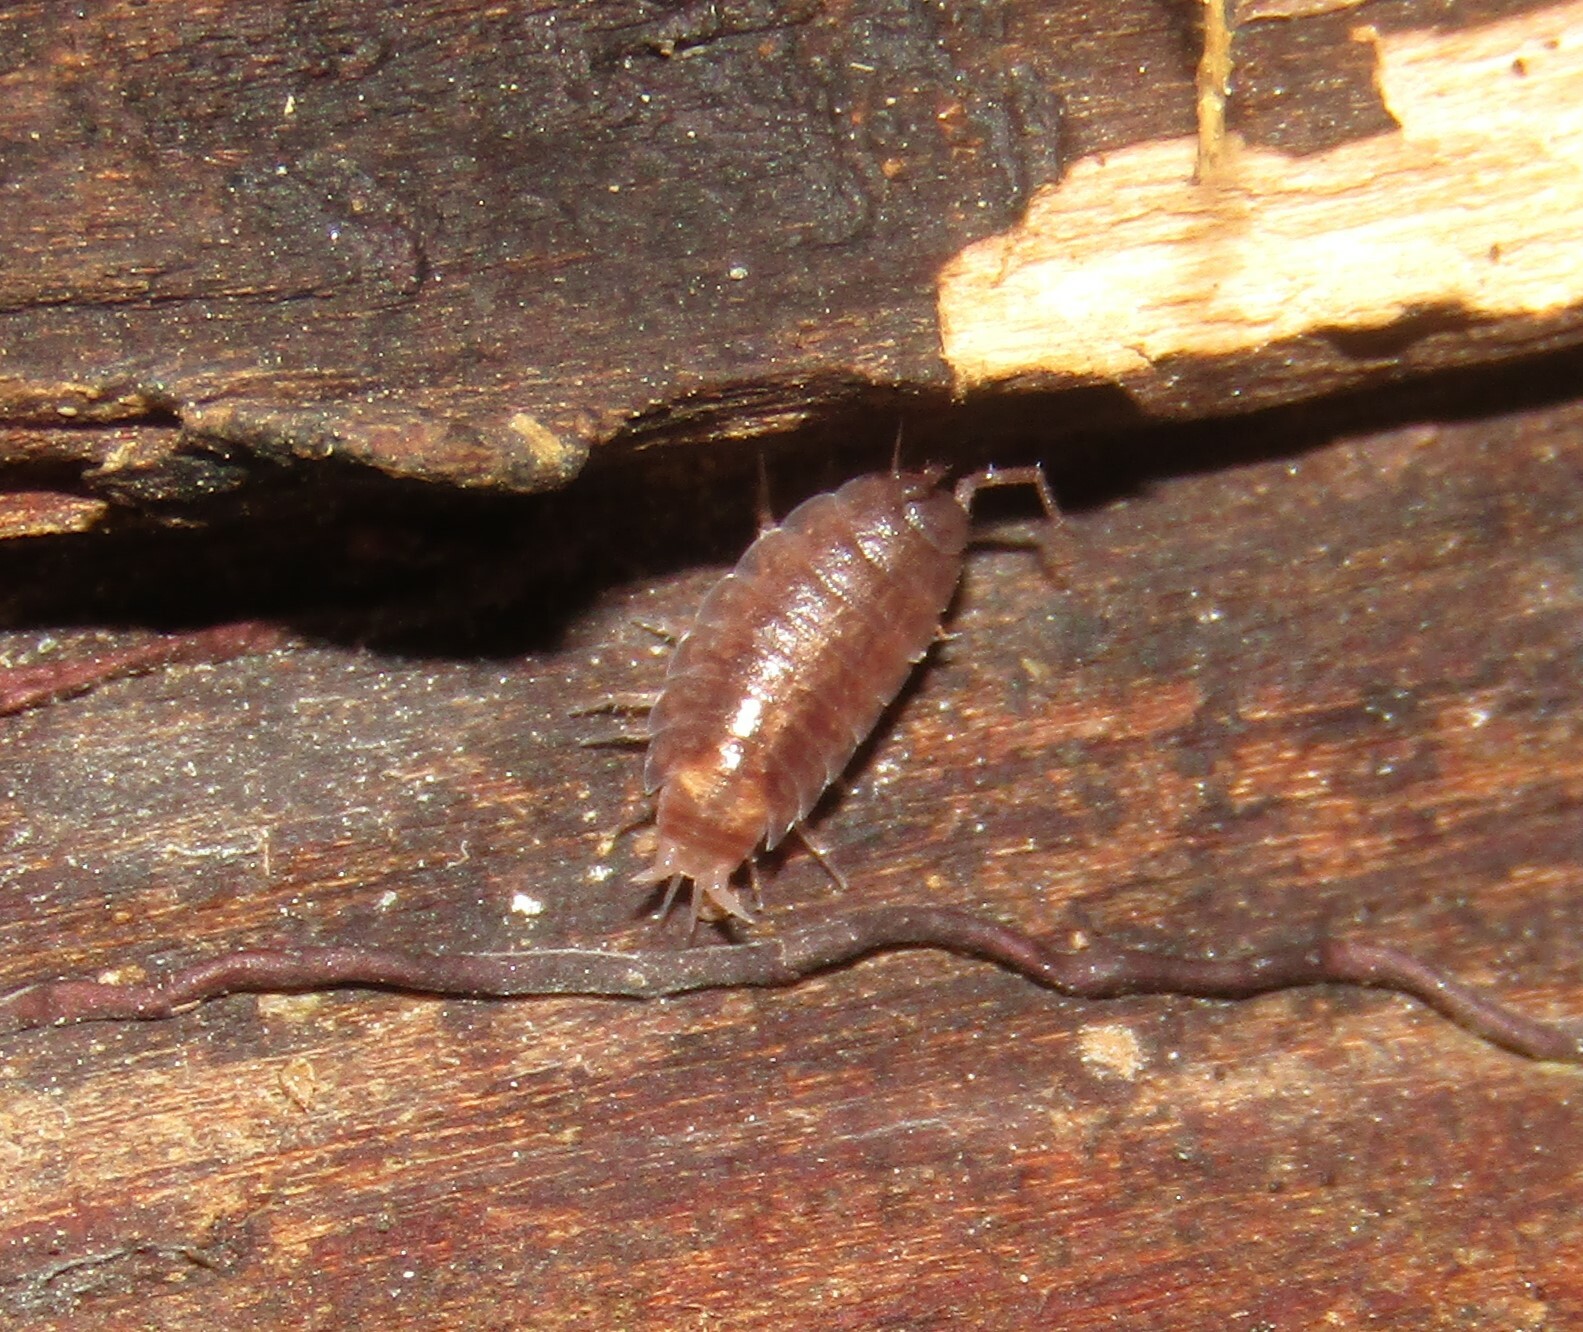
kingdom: Animalia
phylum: Arthropoda
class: Malacostraca
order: Isopoda
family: Trichoniscidae
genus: Hyloniscus
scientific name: Hyloniscus riparius
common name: Isopod
